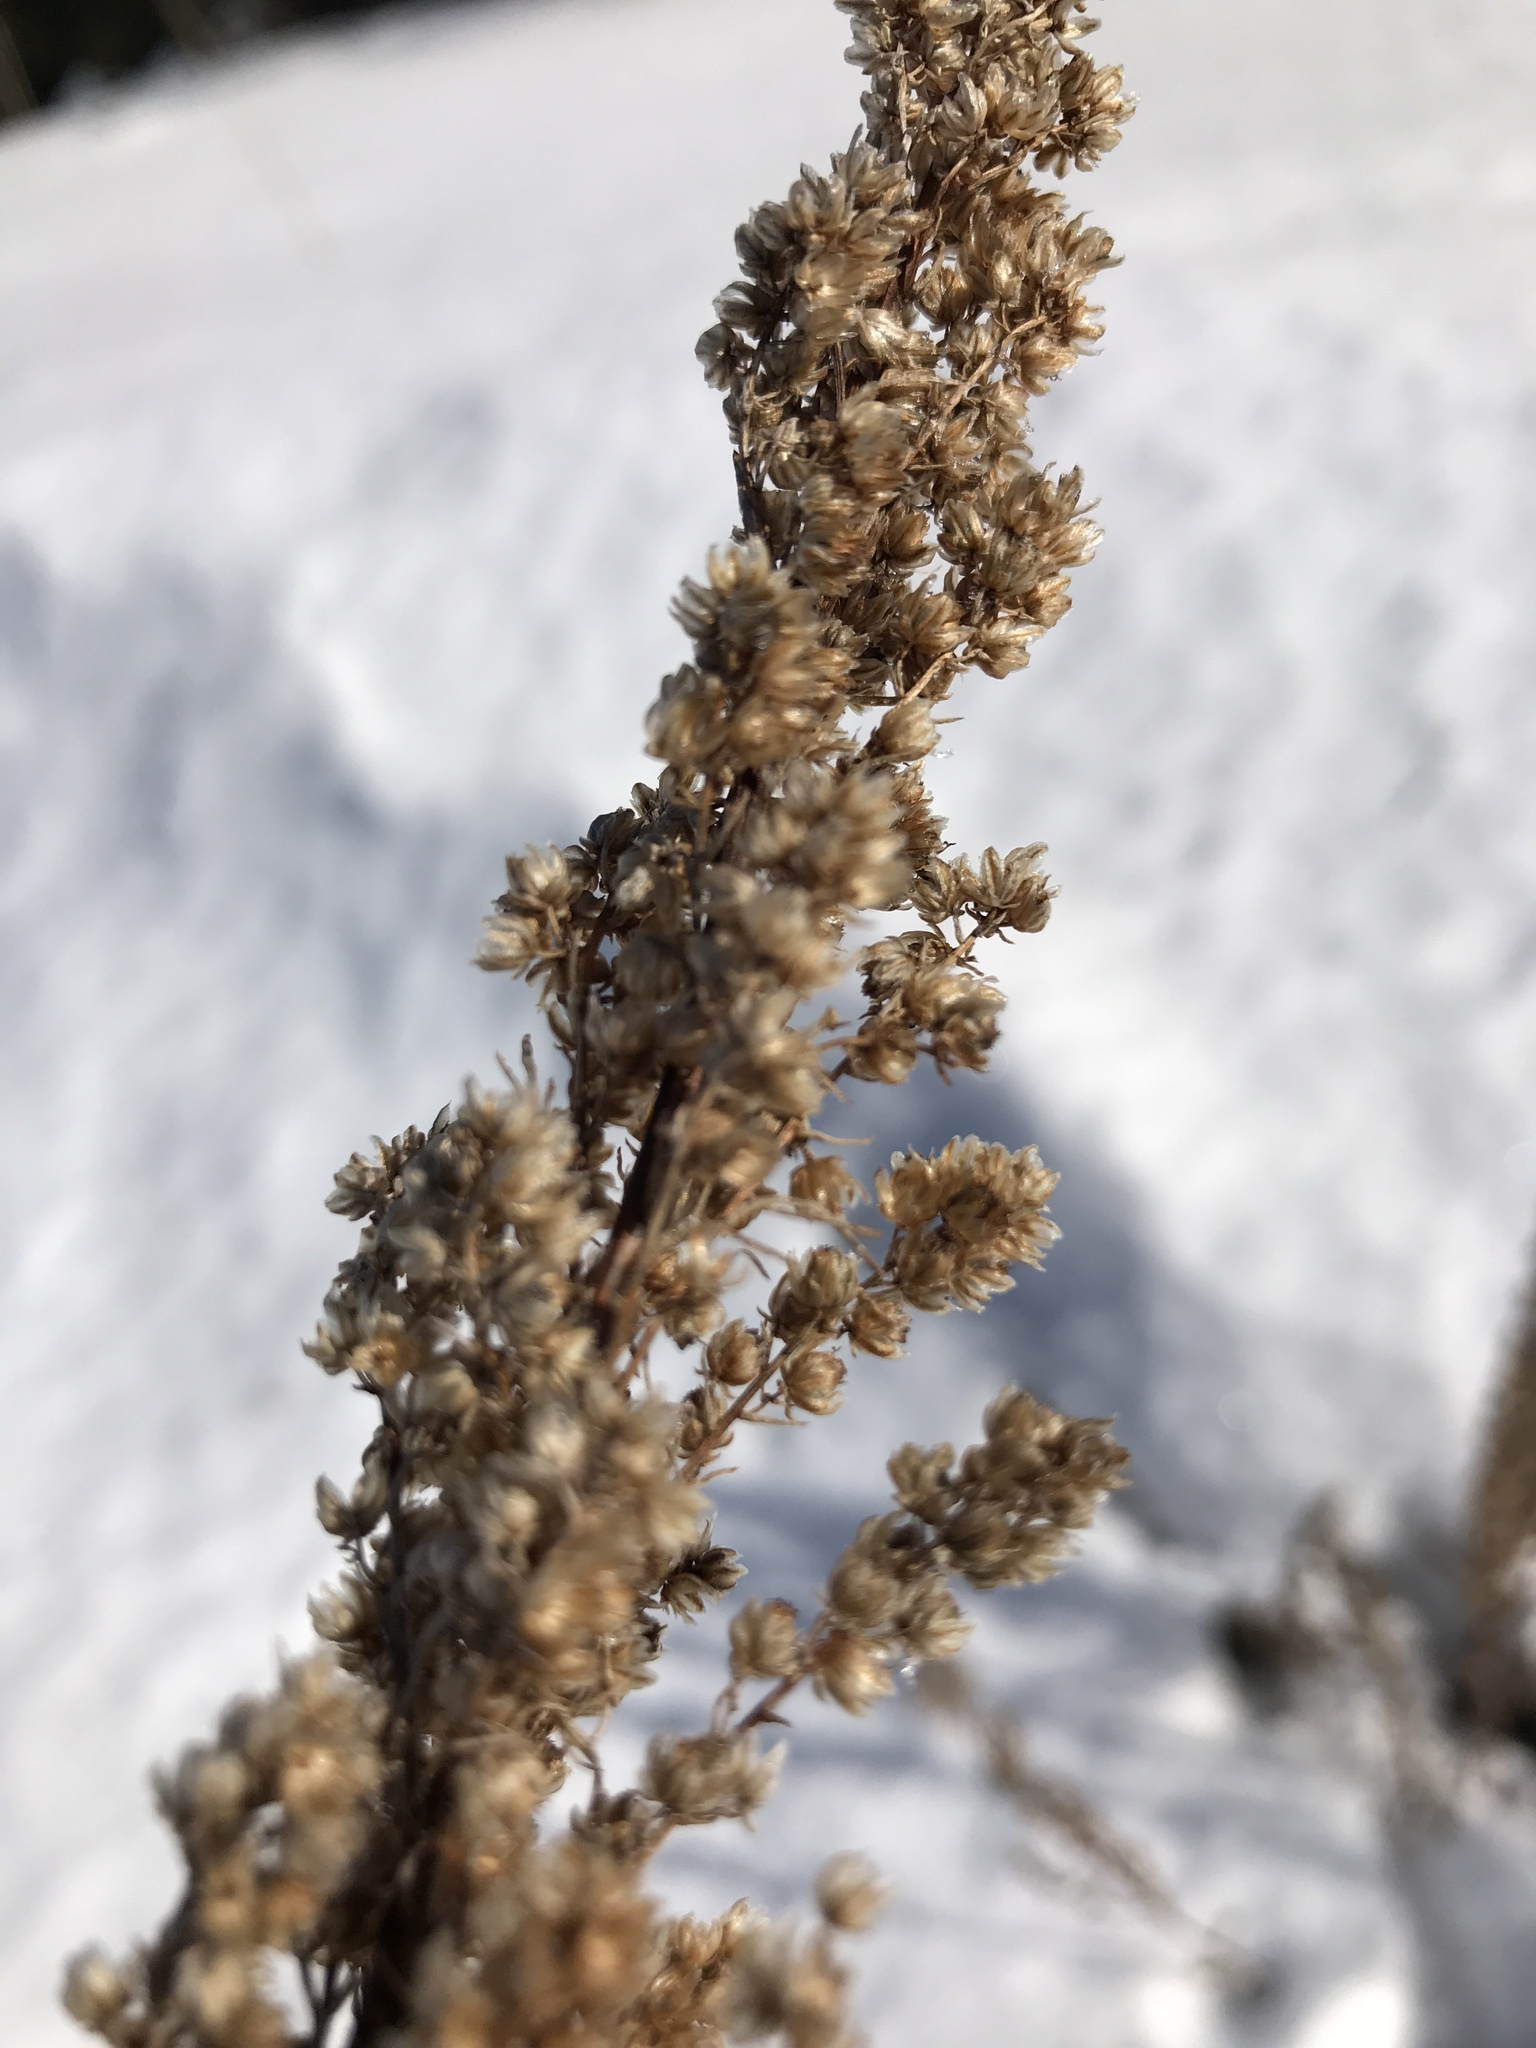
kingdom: Plantae
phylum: Tracheophyta
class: Magnoliopsida
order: Asterales
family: Asteraceae
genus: Artemisia
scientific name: Artemisia campestris
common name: Field wormwood
